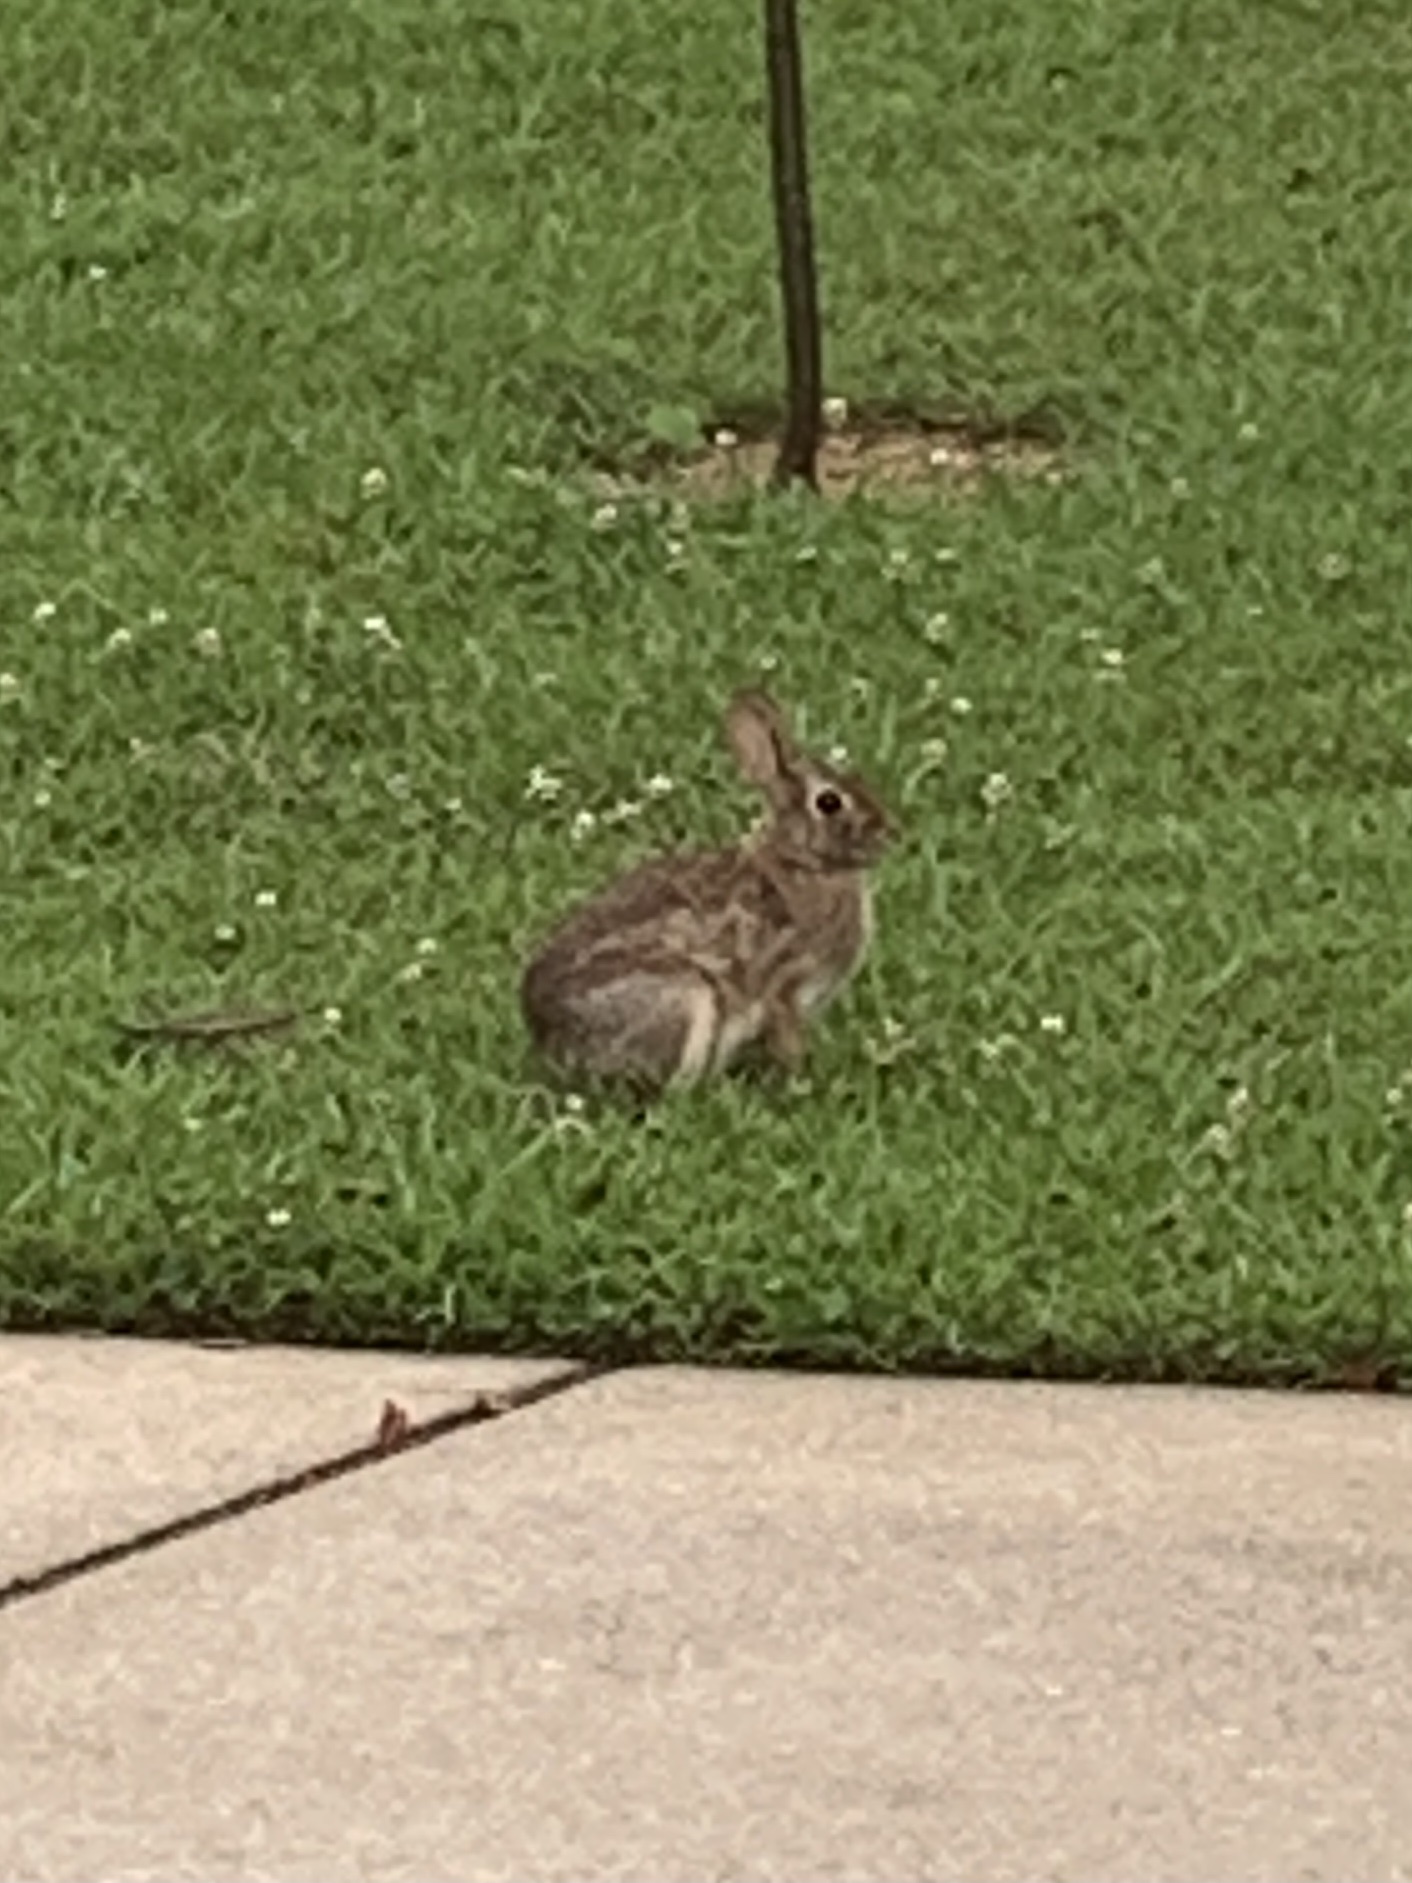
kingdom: Animalia
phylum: Chordata
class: Mammalia
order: Lagomorpha
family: Leporidae
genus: Sylvilagus
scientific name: Sylvilagus floridanus
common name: Eastern cottontail
